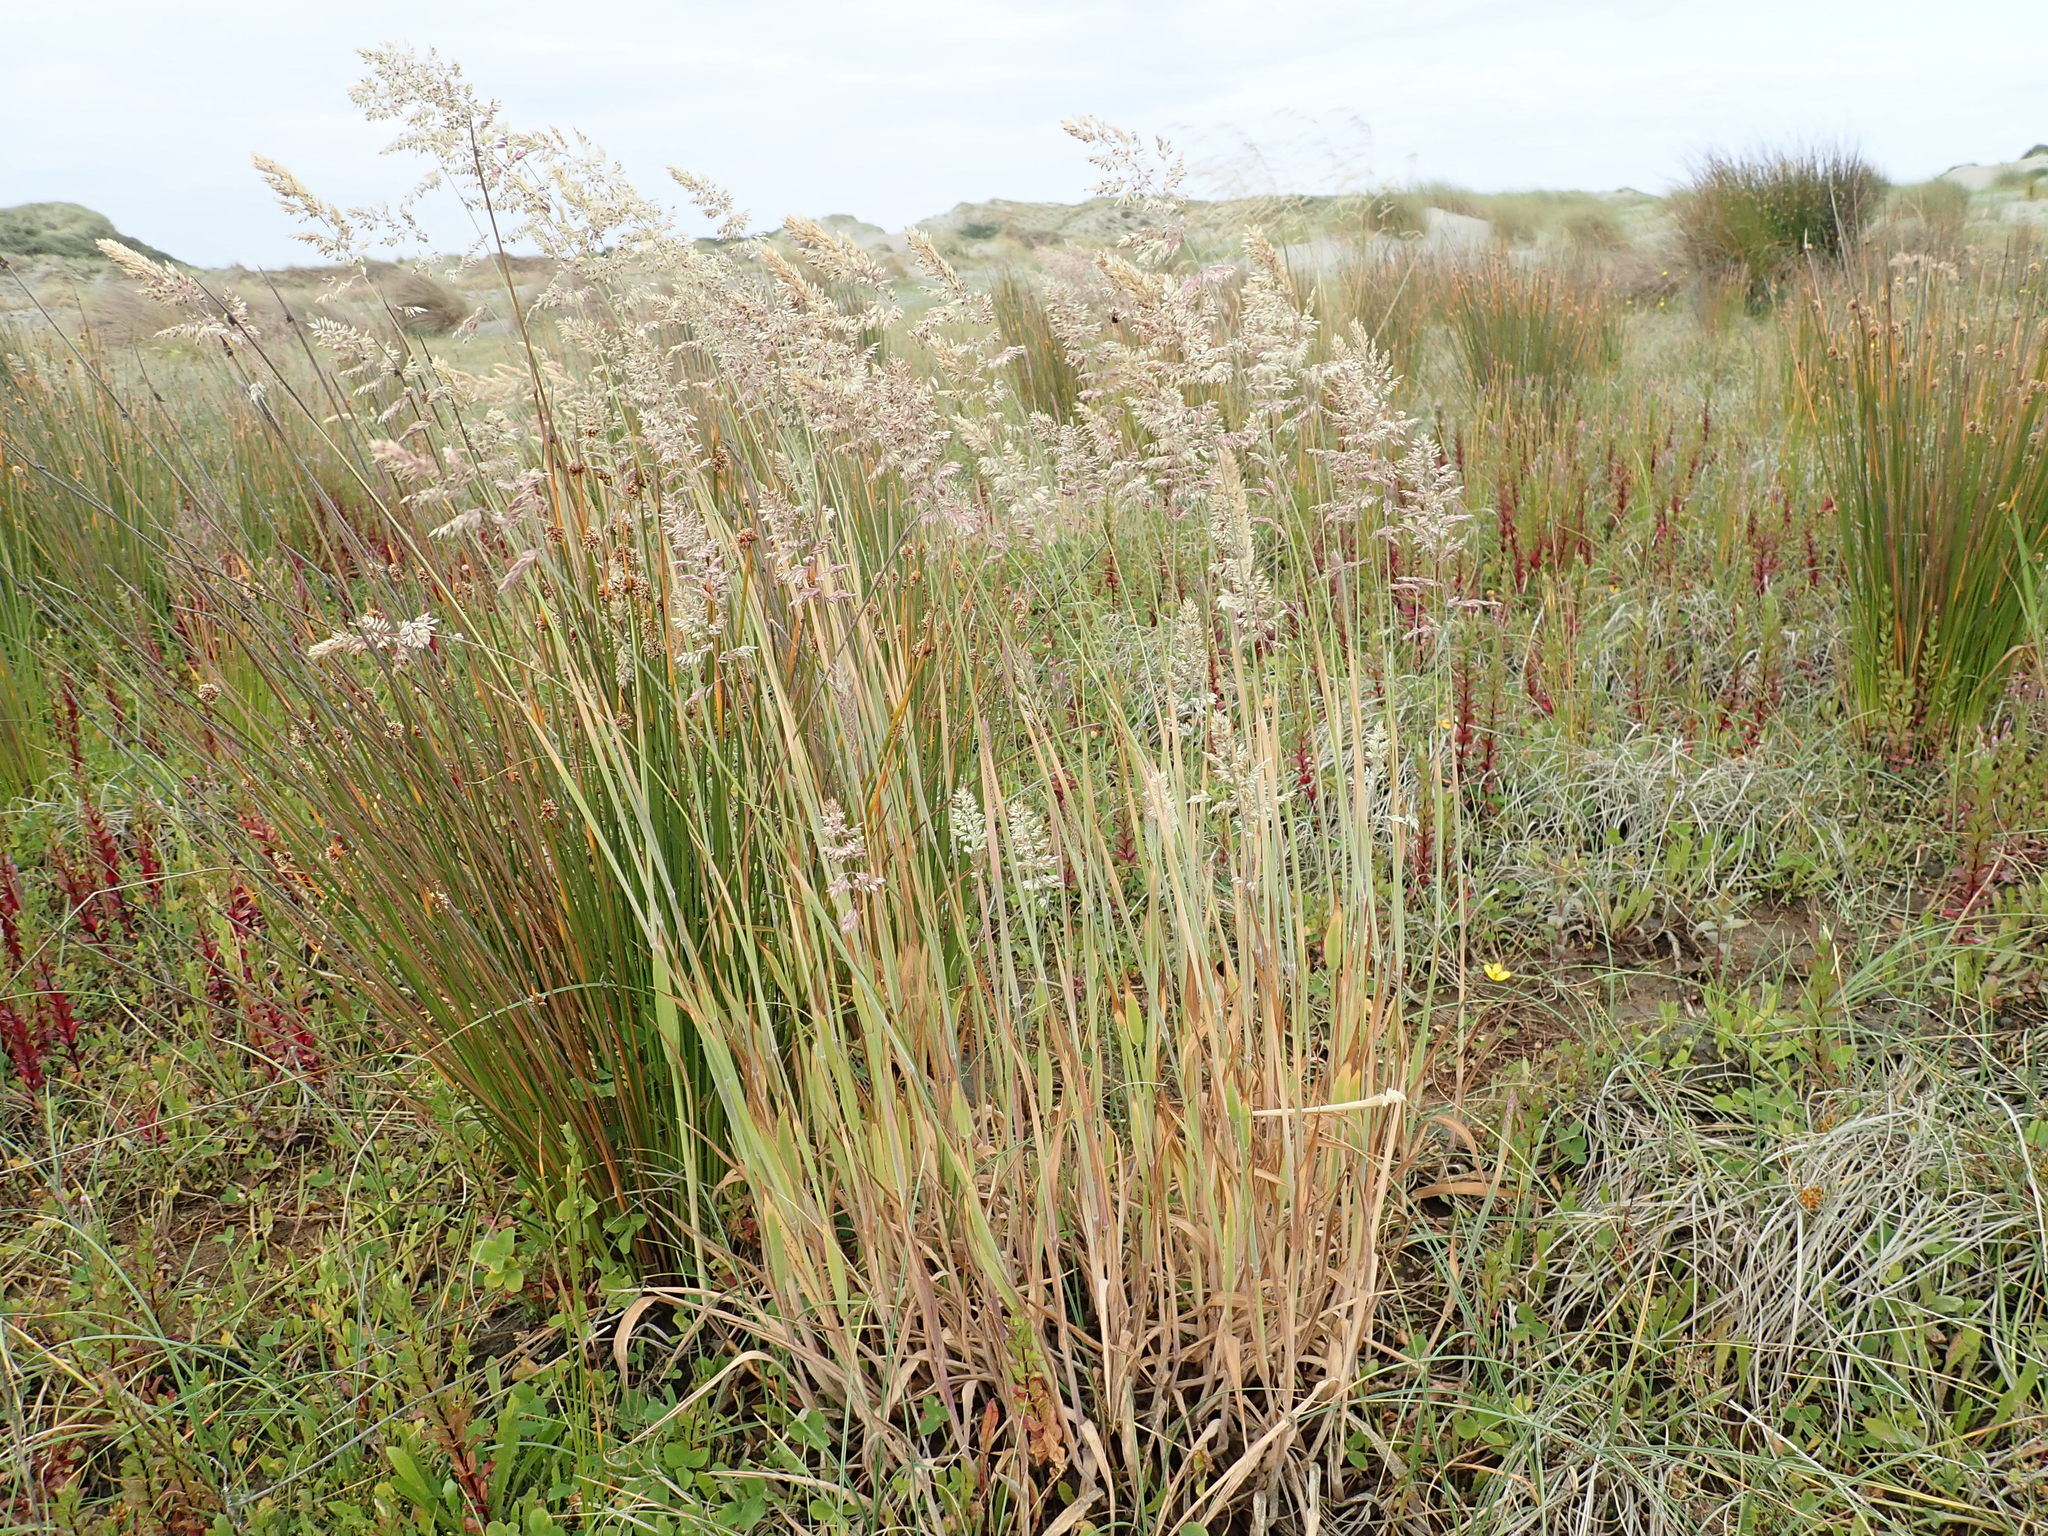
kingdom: Plantae
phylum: Tracheophyta
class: Liliopsida
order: Poales
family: Poaceae
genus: Holcus
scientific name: Holcus lanatus
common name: Yorkshire-fog
